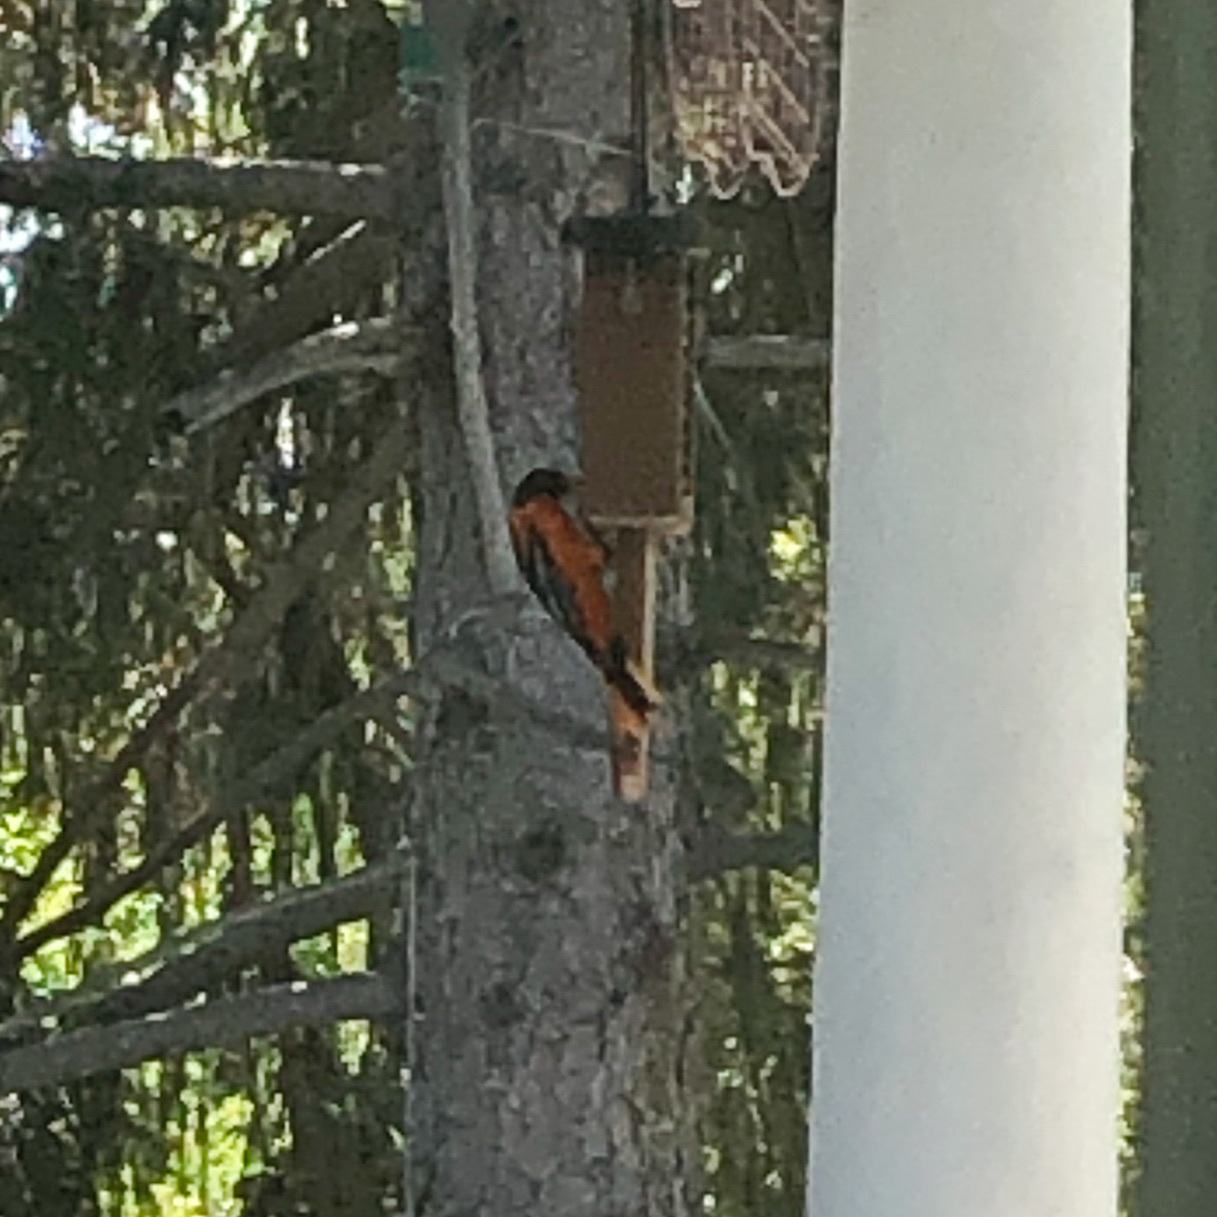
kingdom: Animalia
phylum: Chordata
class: Aves
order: Passeriformes
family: Icteridae
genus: Icterus
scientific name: Icterus galbula
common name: Baltimore oriole
